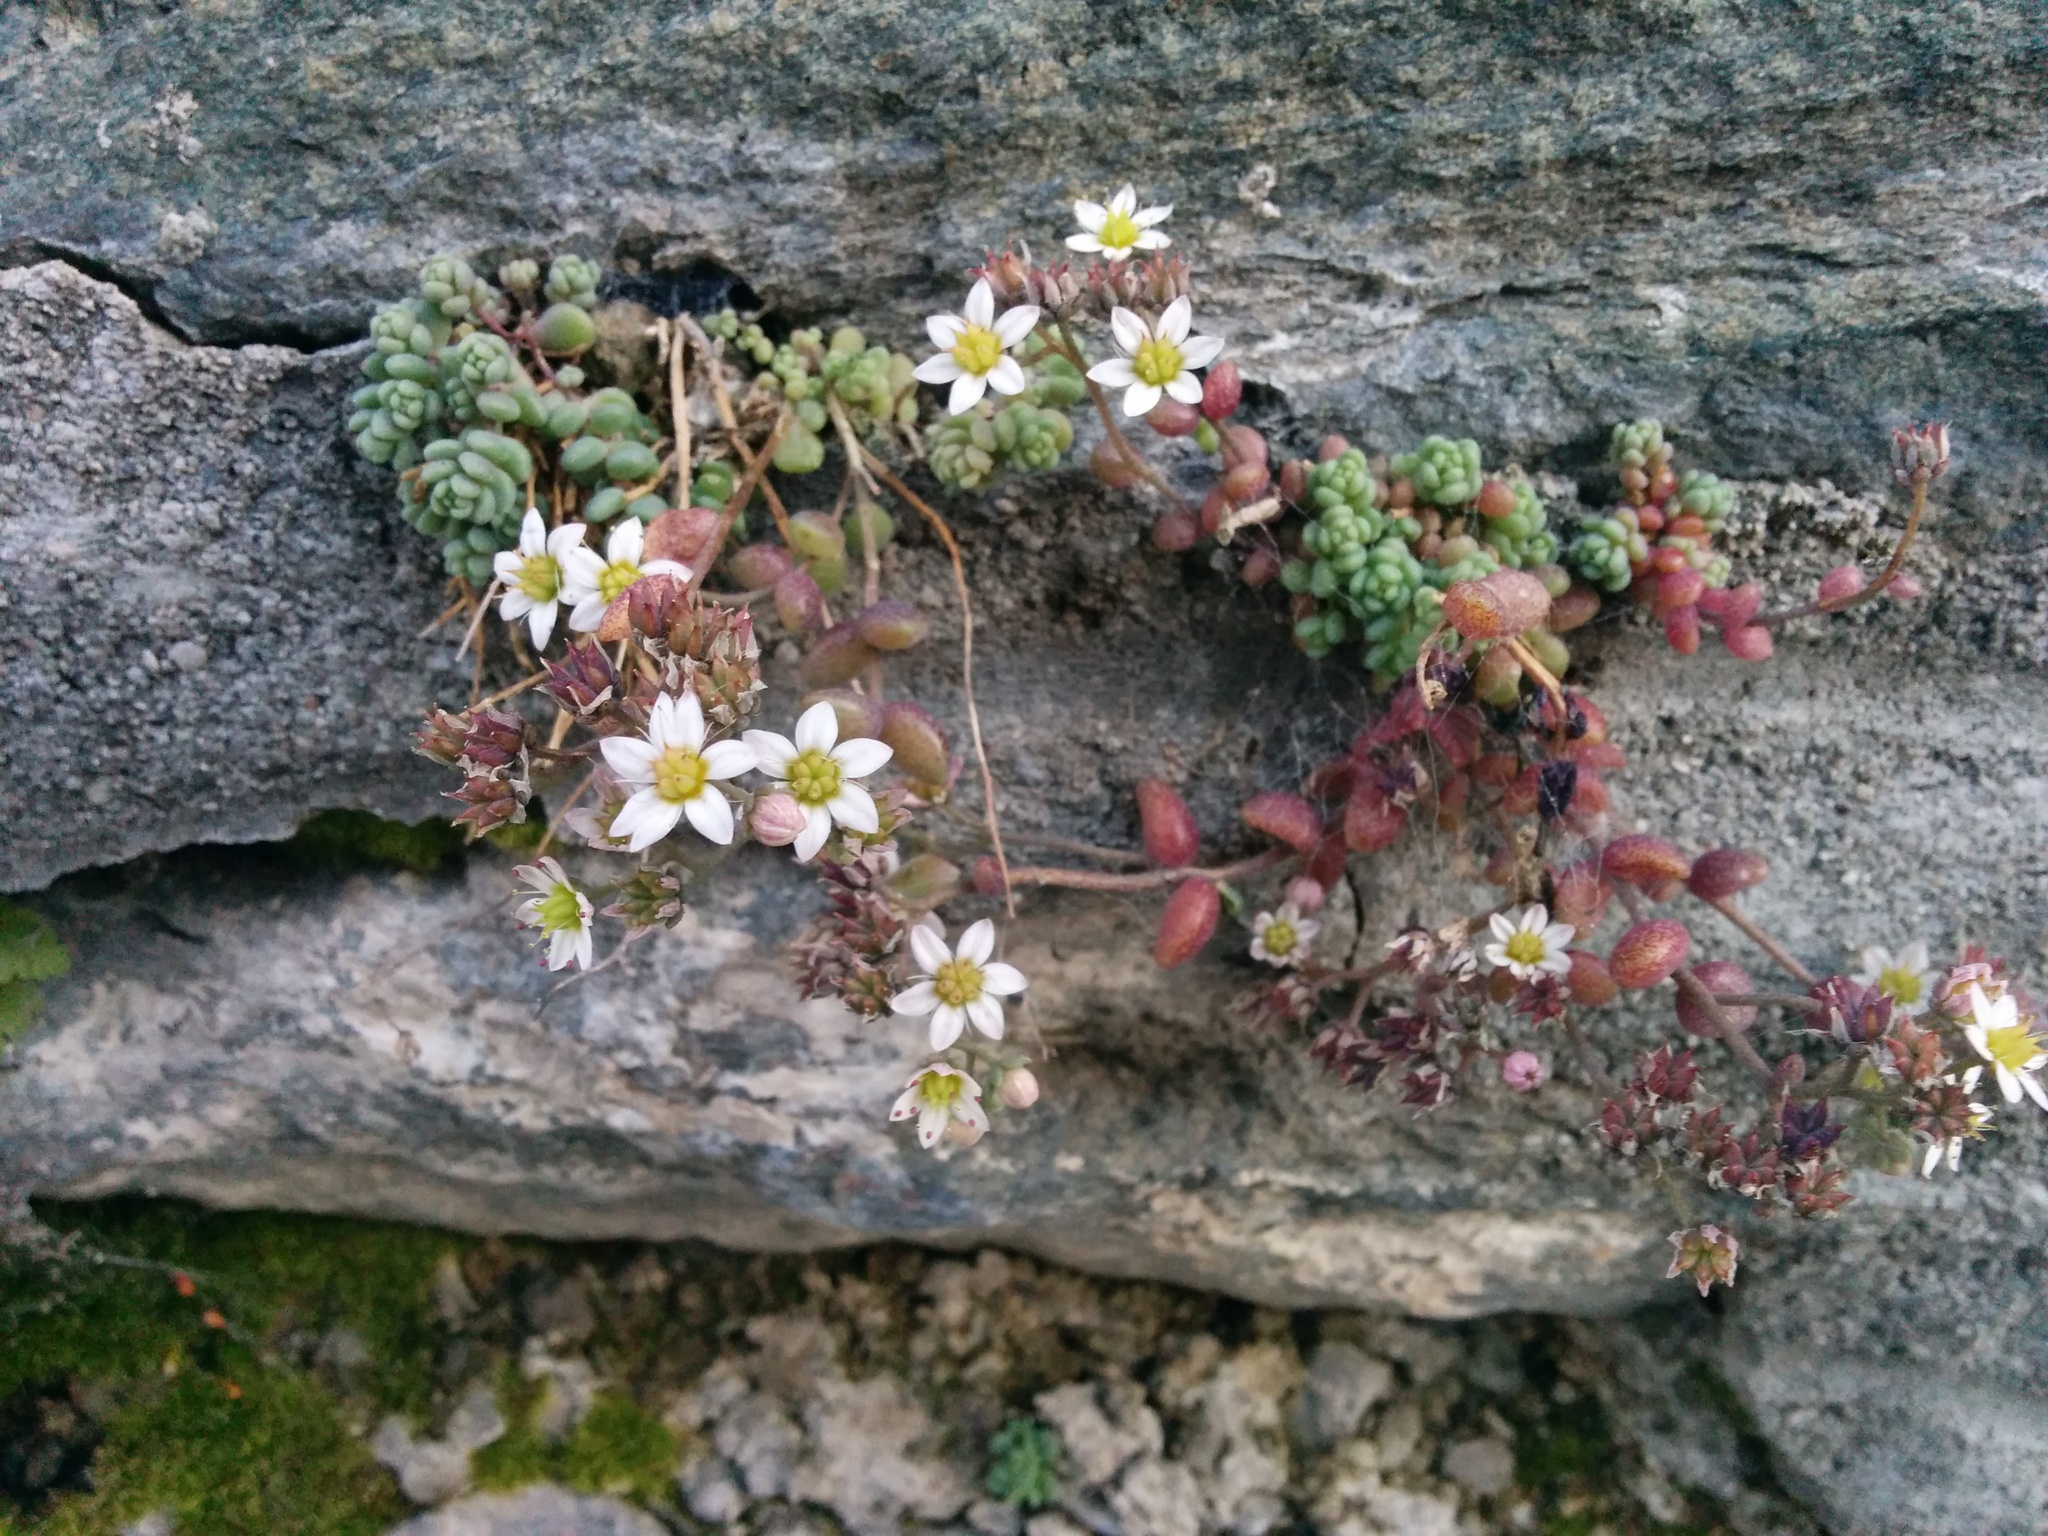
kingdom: Plantae
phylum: Tracheophyta
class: Magnoliopsida
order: Saxifragales
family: Crassulaceae
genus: Sedum
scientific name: Sedum dasyphyllum
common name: Thick-leaf stonecrop
